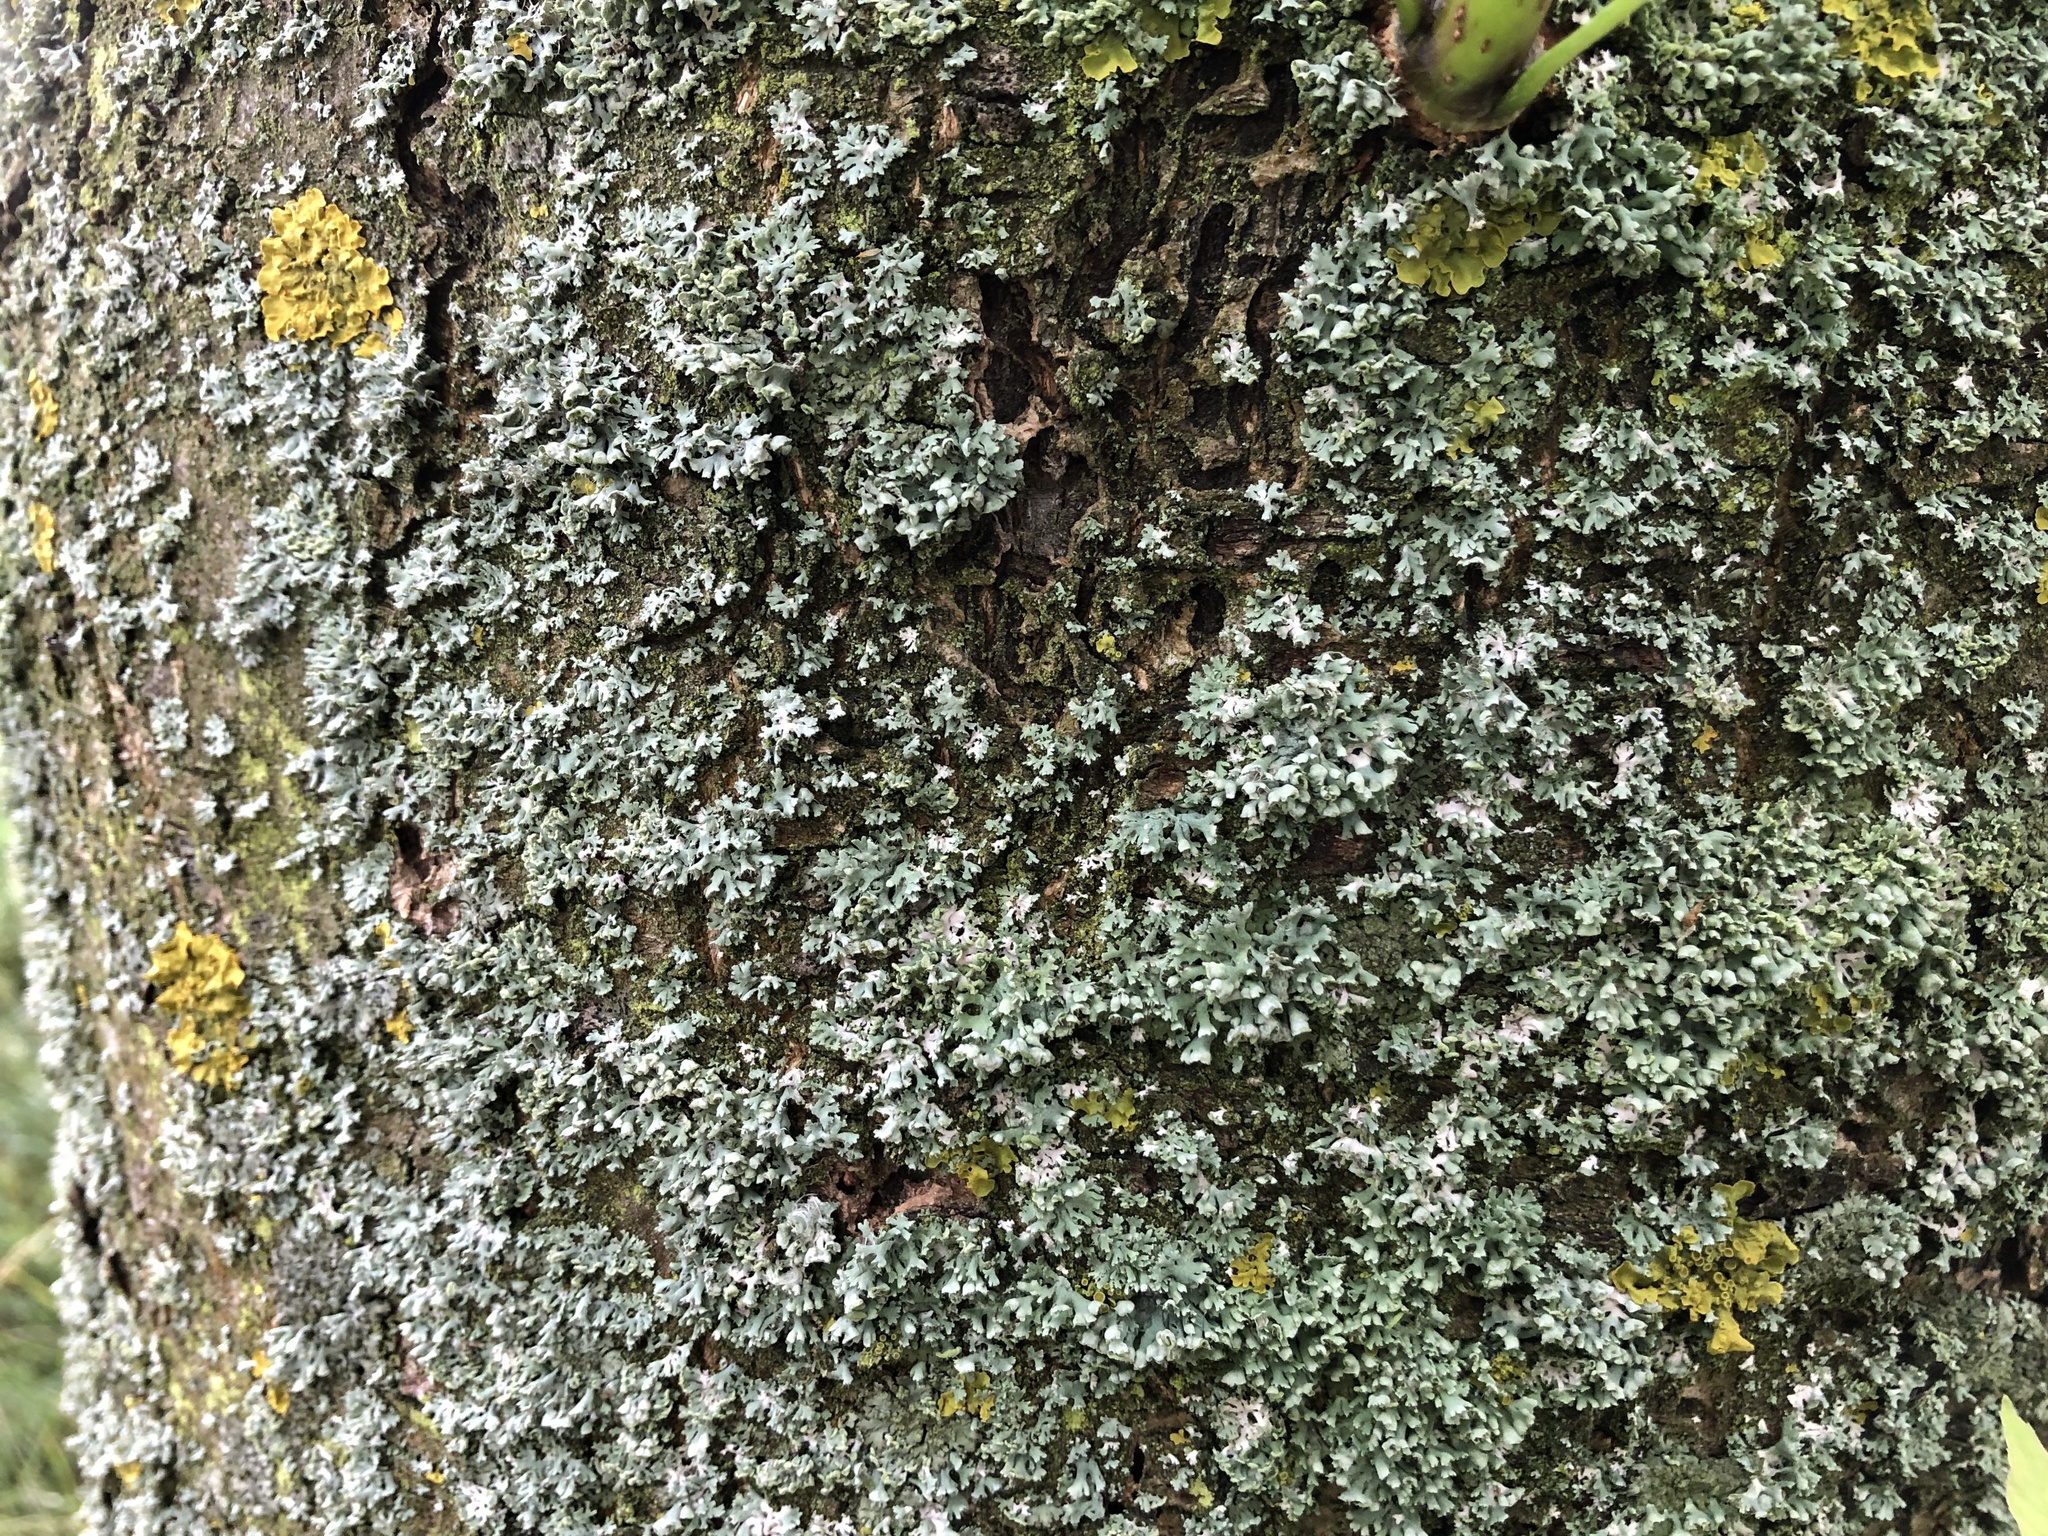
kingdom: Fungi
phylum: Ascomycota
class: Lecanoromycetes
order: Caliciales
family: Physciaceae
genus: Physcia
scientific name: Physcia adscendens
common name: Hooded rosette lichen
